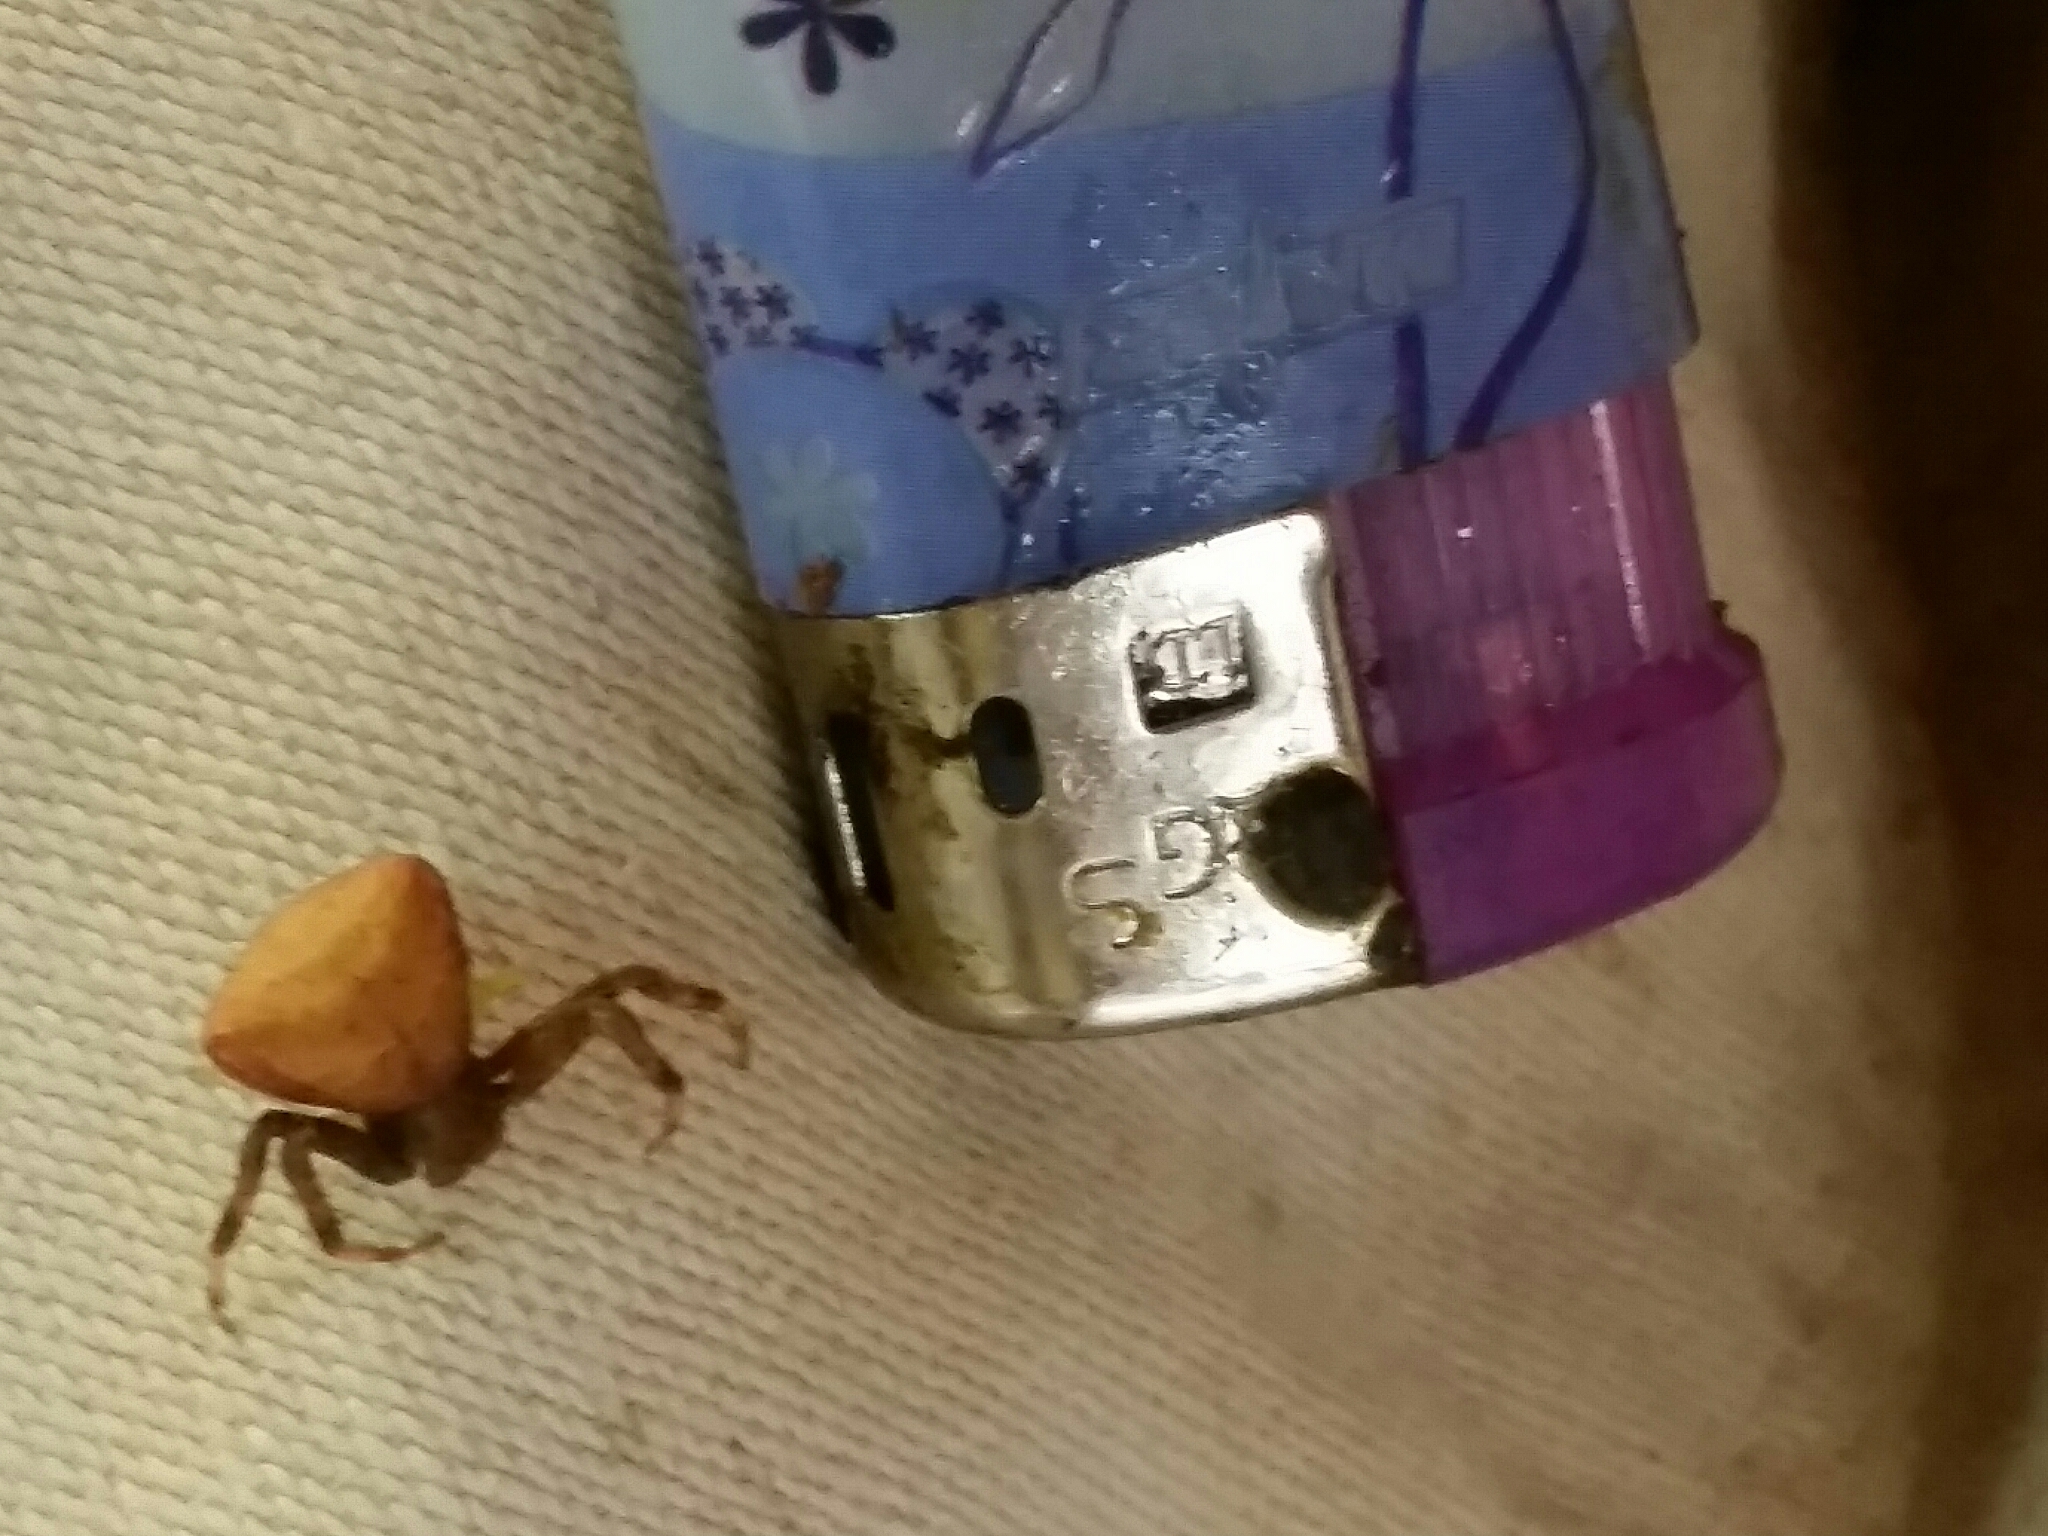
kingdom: Animalia
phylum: Arthropoda
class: Arachnida
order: Araneae
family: Thomisidae
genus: Pistius
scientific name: Pistius truncatus
